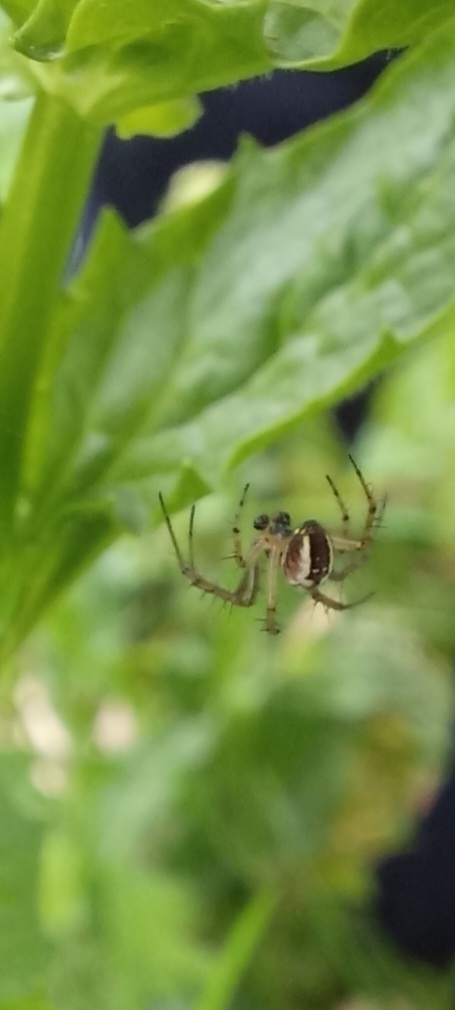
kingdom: Animalia
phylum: Arthropoda
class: Arachnida
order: Araneae
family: Araneidae
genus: Mangora
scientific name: Mangora acalypha
